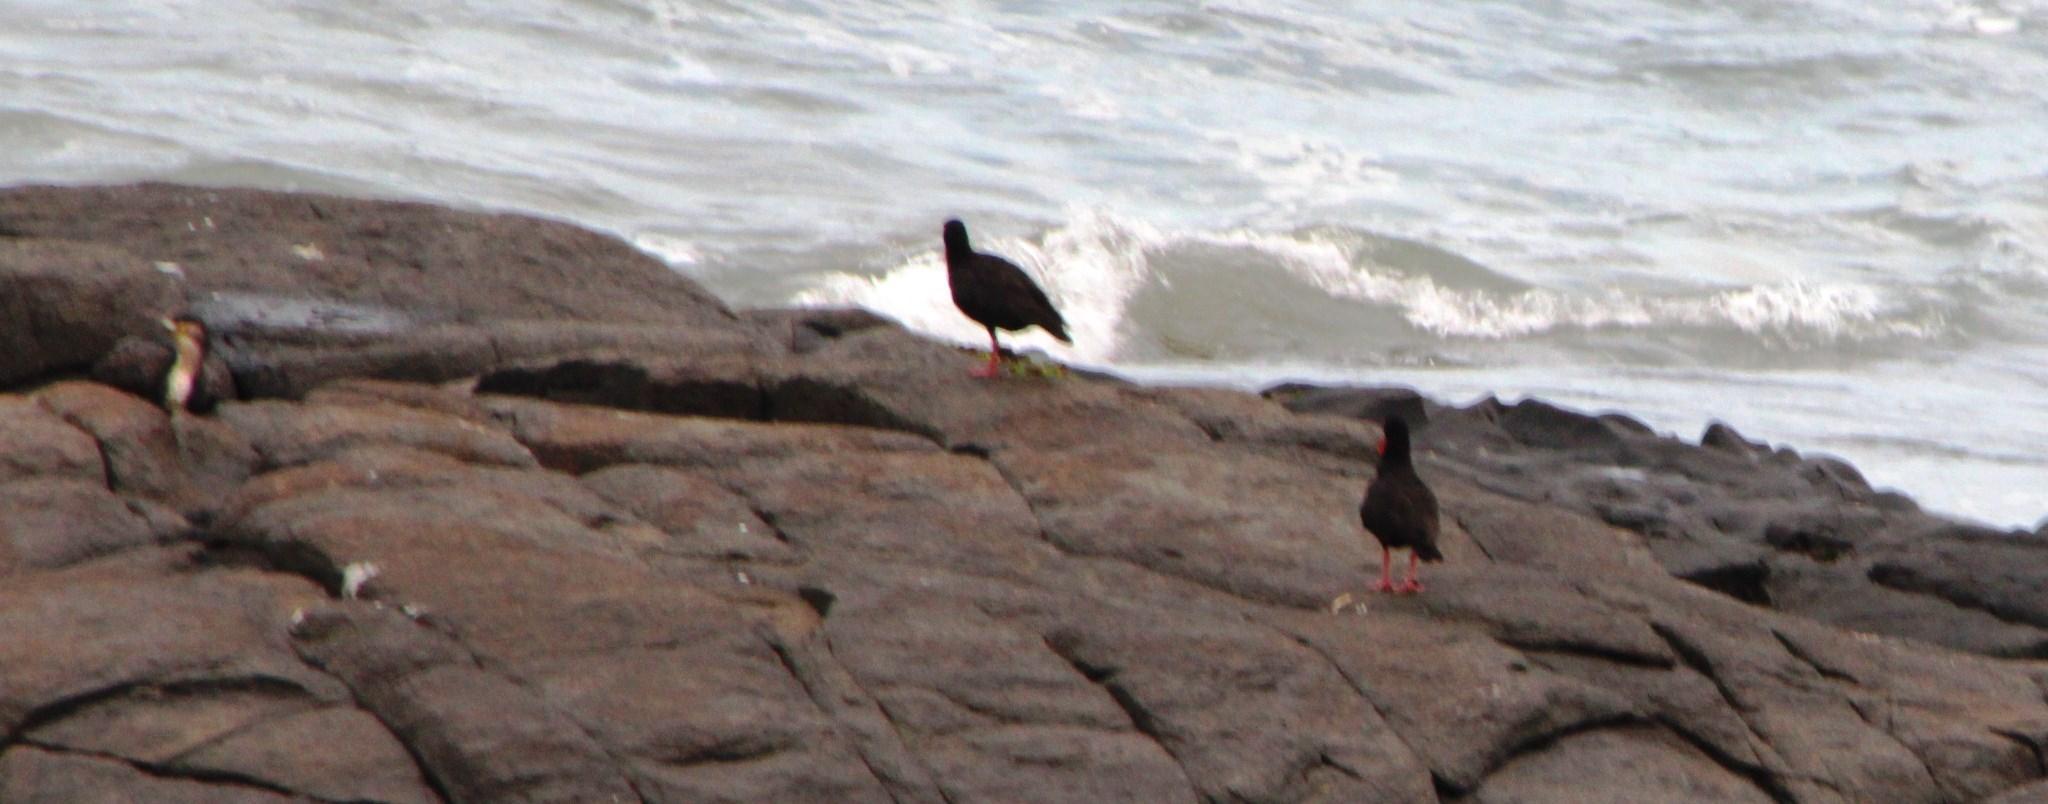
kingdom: Animalia
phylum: Chordata
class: Aves
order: Charadriiformes
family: Haematopodidae
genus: Haematopus
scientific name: Haematopus moquini
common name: African oystercatcher
